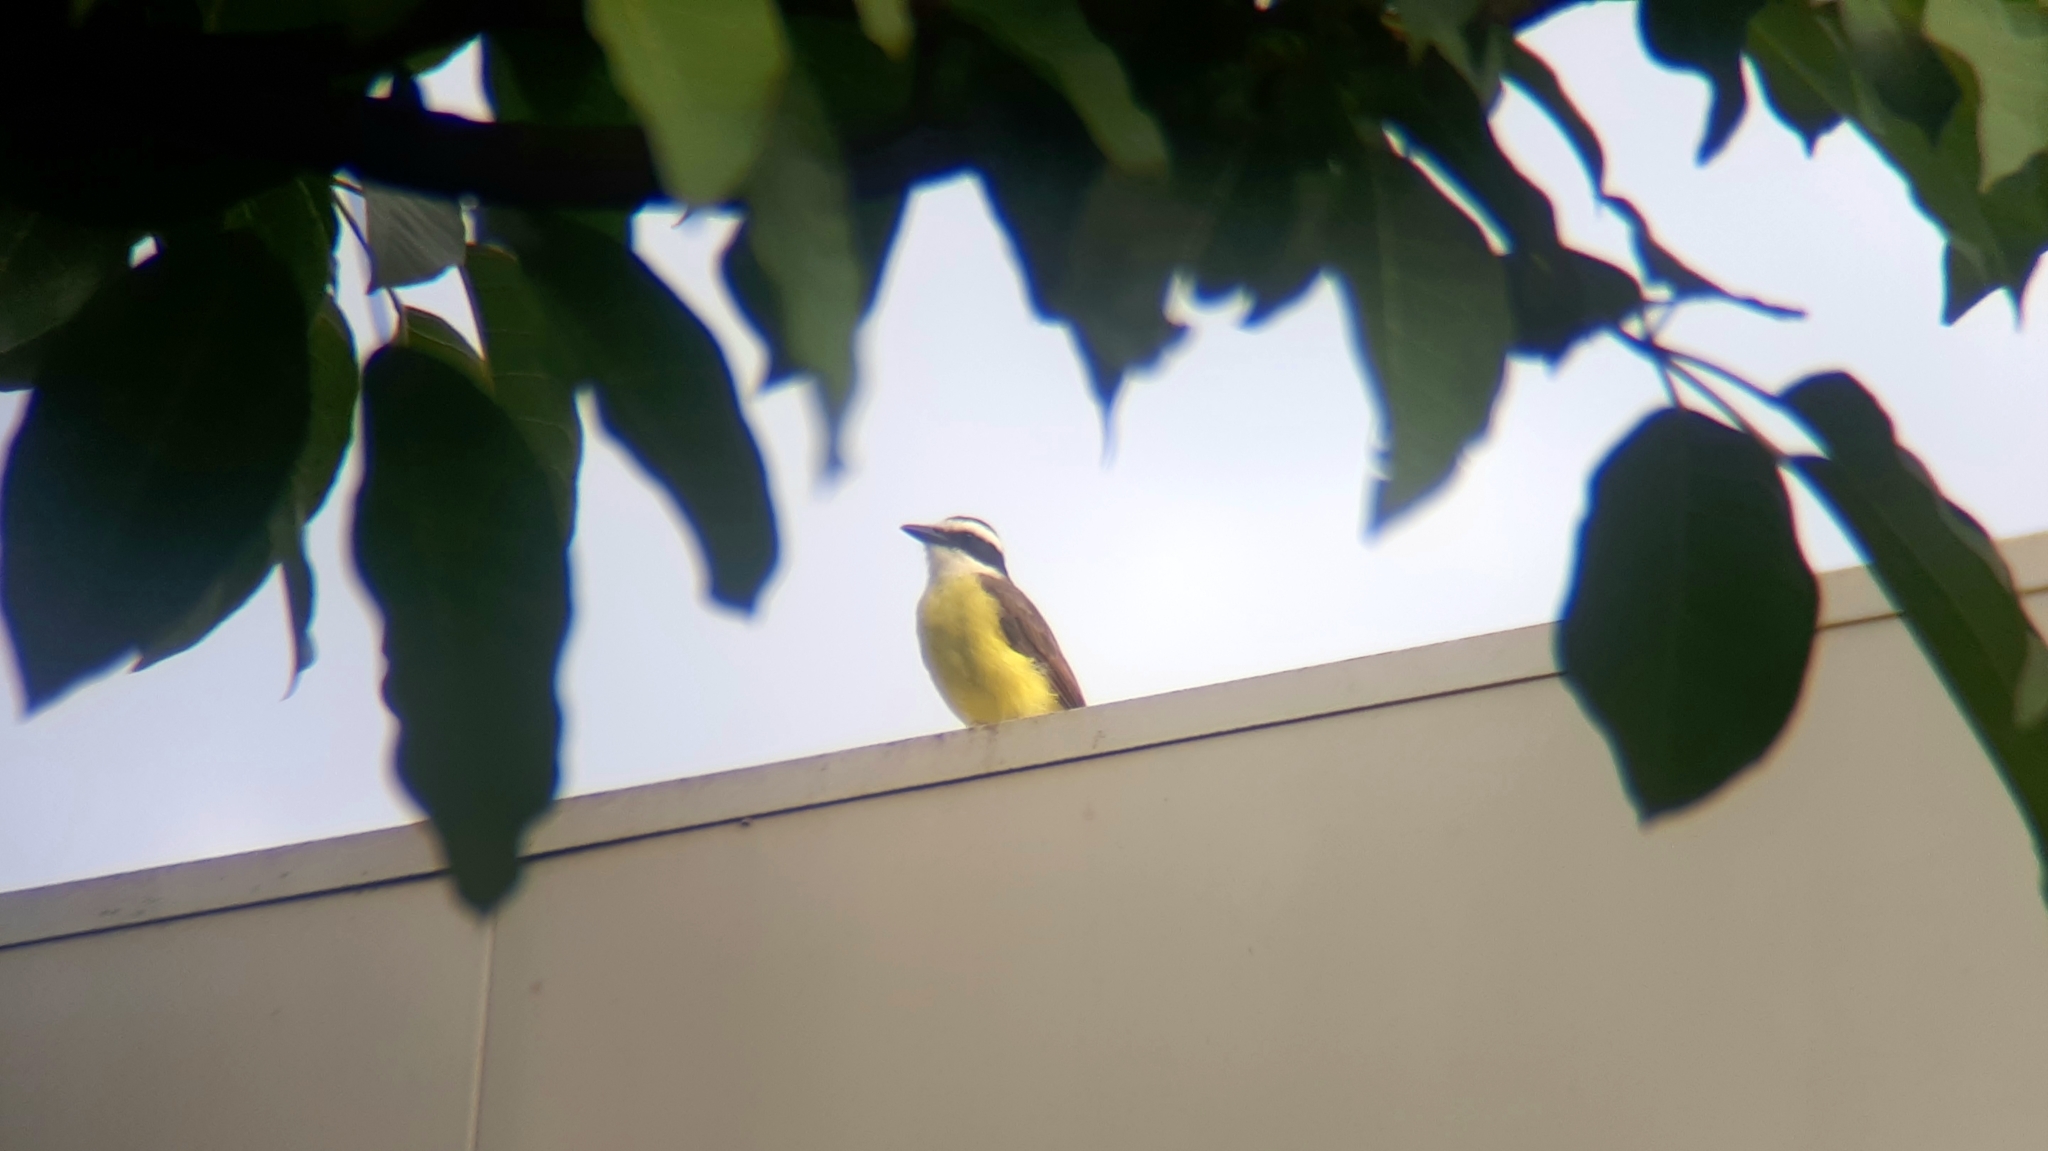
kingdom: Animalia
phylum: Chordata
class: Aves
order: Passeriformes
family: Tyrannidae
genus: Pitangus
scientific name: Pitangus sulphuratus
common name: Great kiskadee
